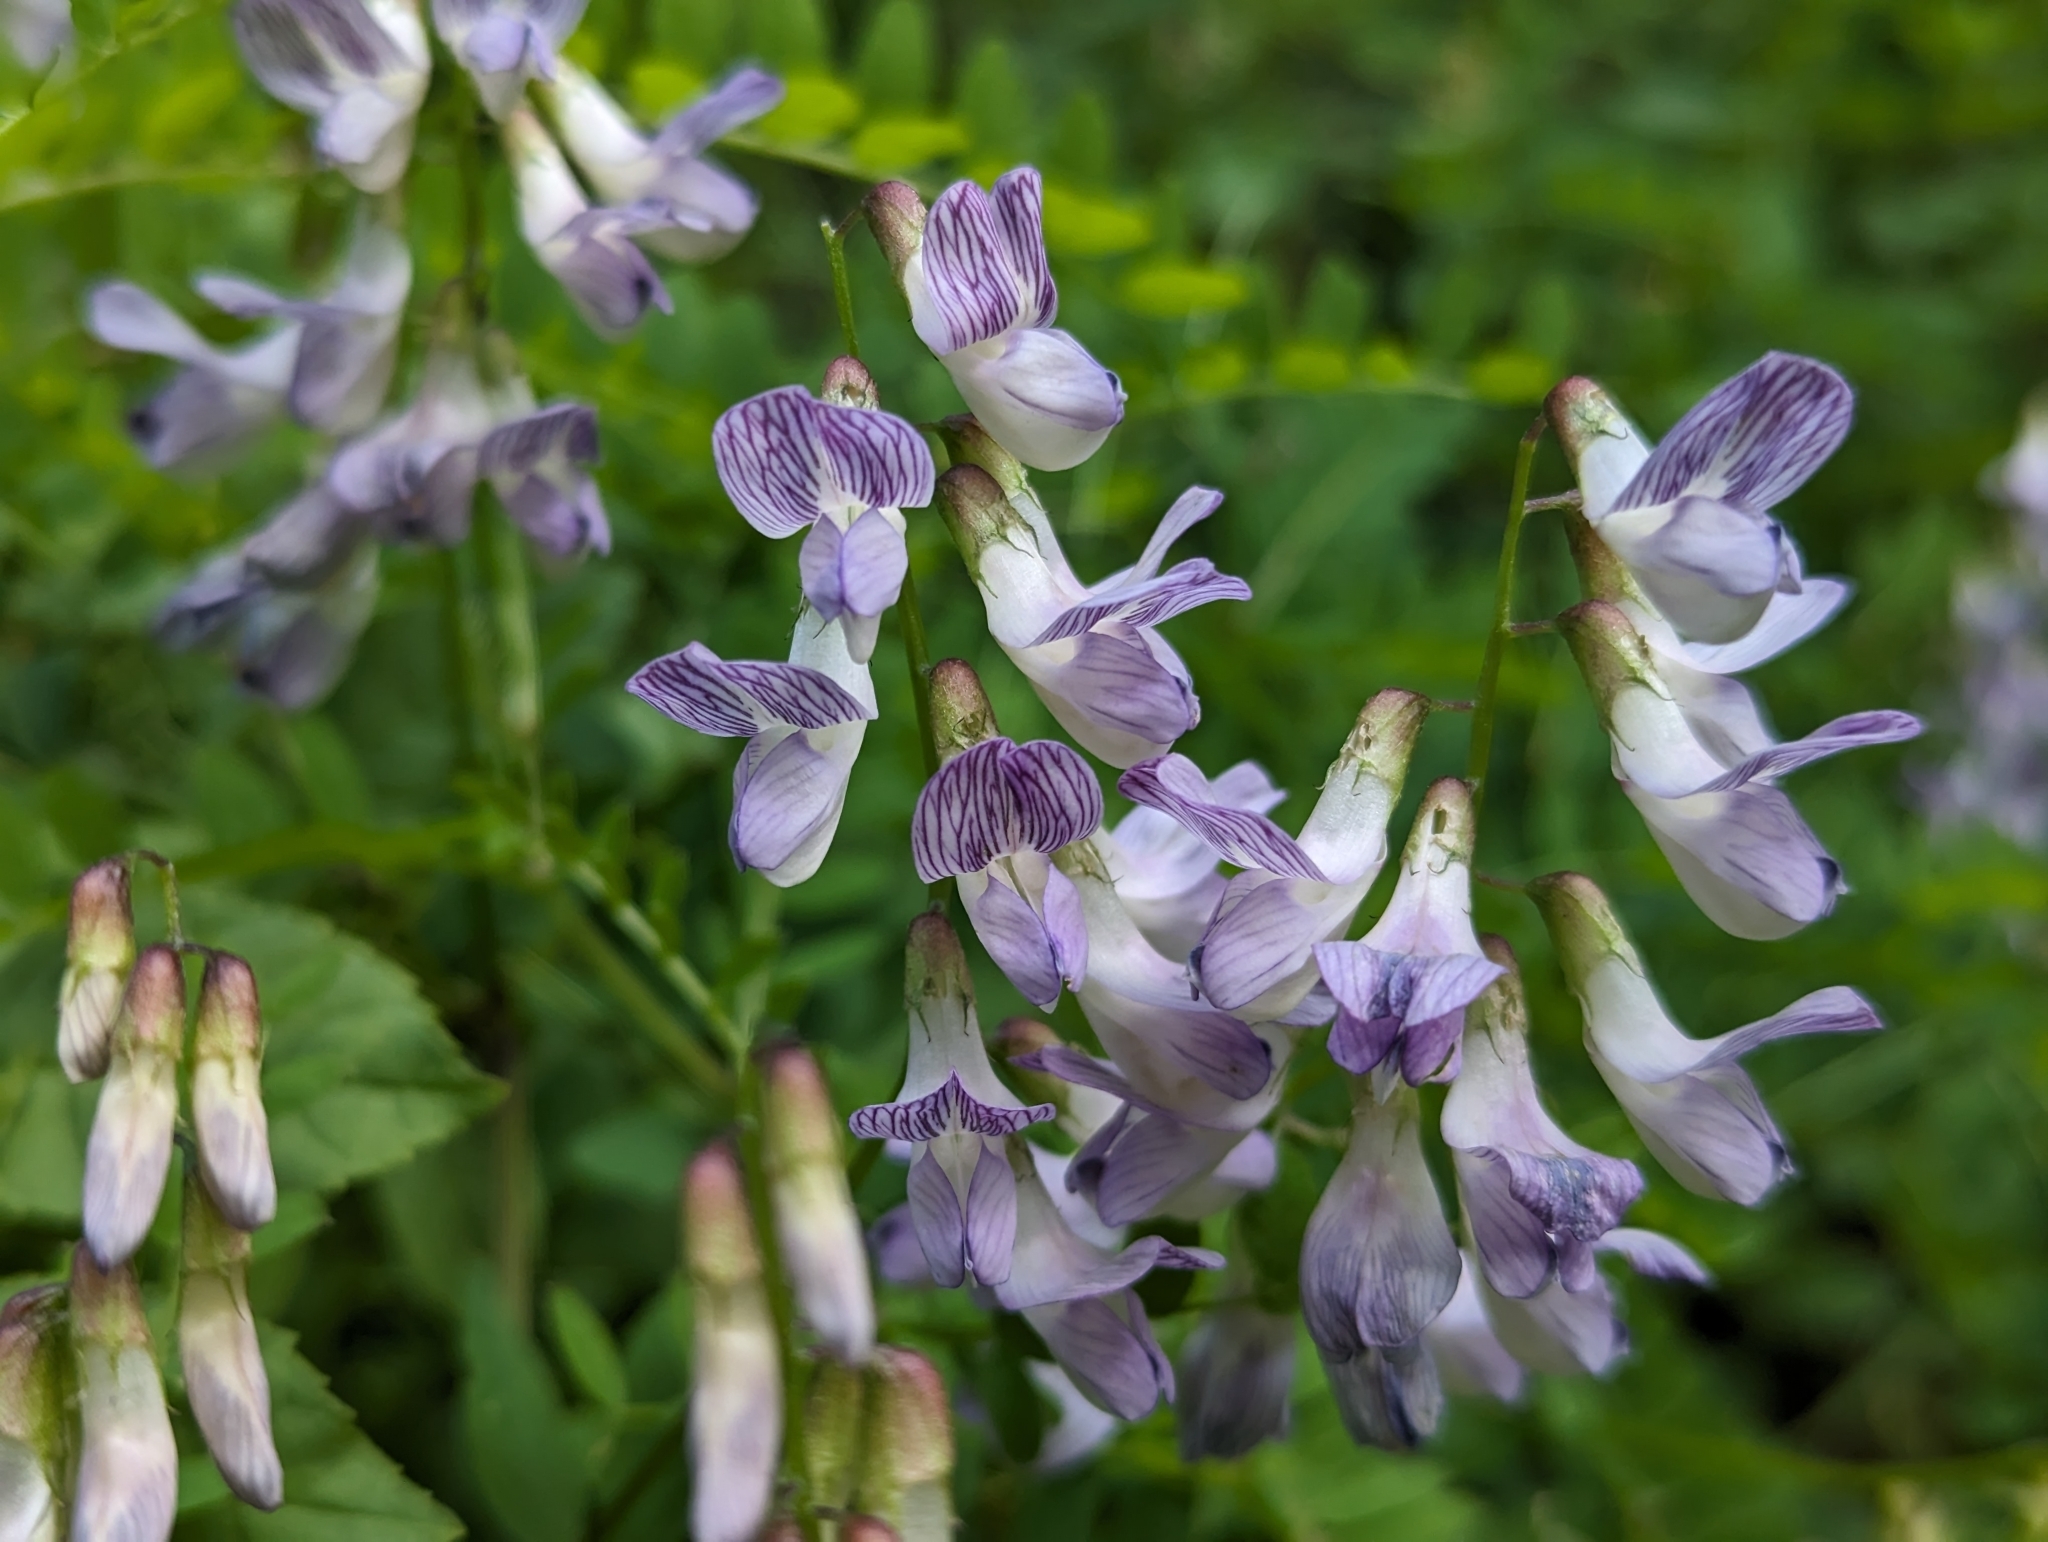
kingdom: Plantae
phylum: Tracheophyta
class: Magnoliopsida
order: Fabales
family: Fabaceae
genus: Vicia
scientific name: Vicia sylvatica
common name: Wood vetch
